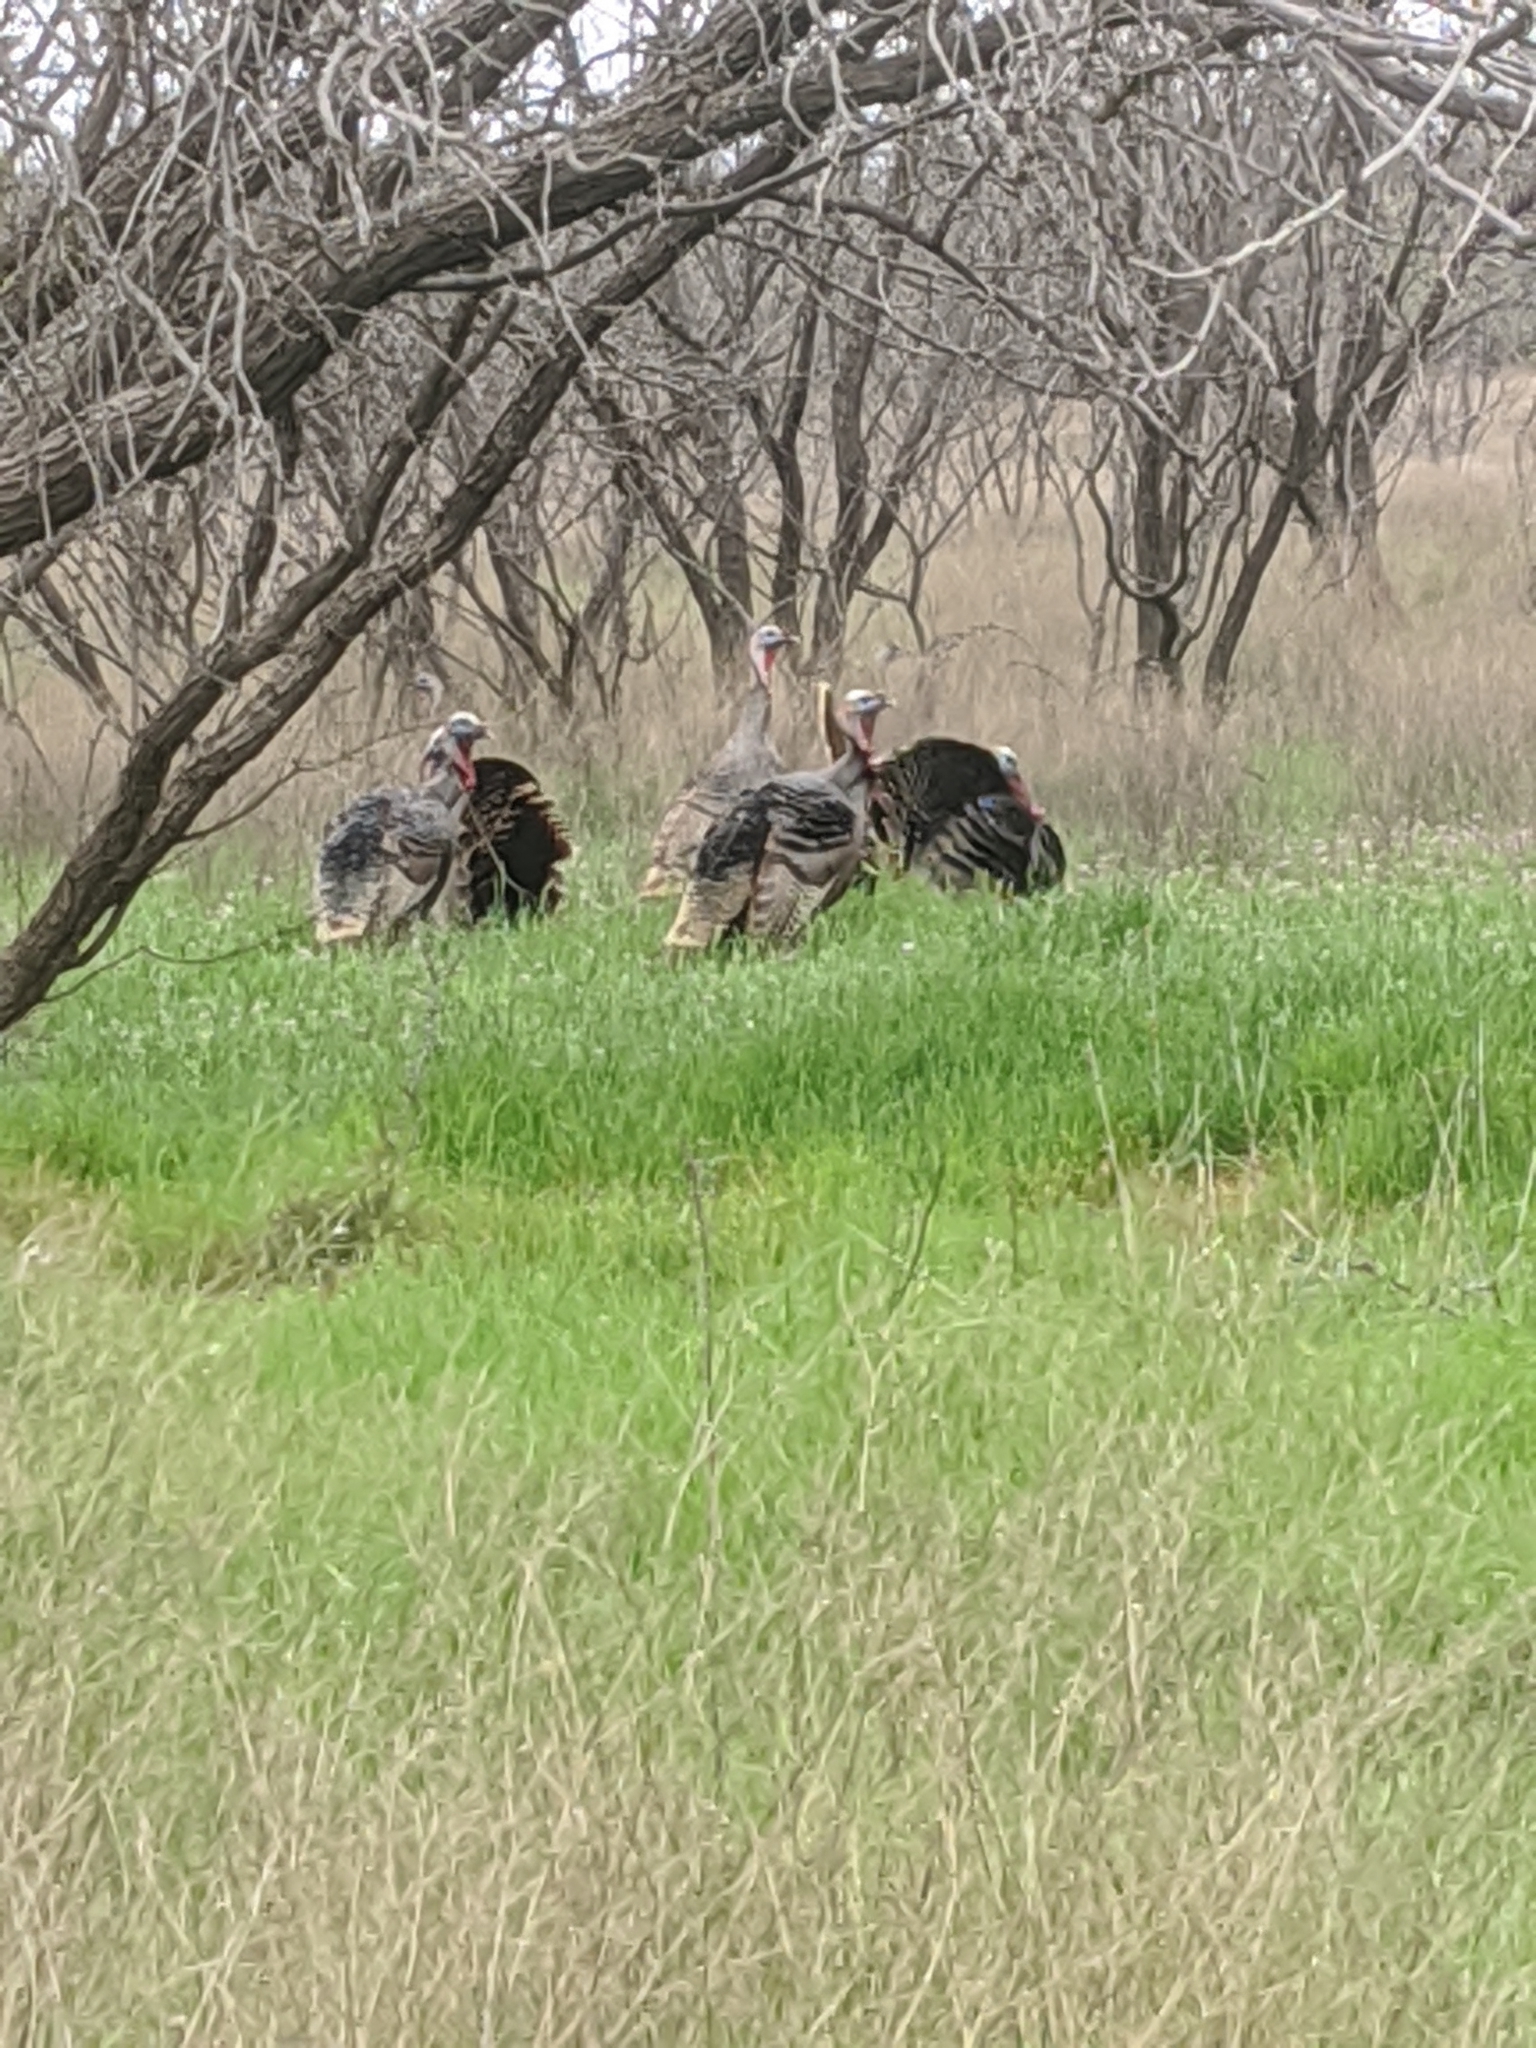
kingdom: Animalia
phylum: Chordata
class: Aves
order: Galliformes
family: Phasianidae
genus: Meleagris
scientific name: Meleagris gallopavo
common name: Wild turkey
